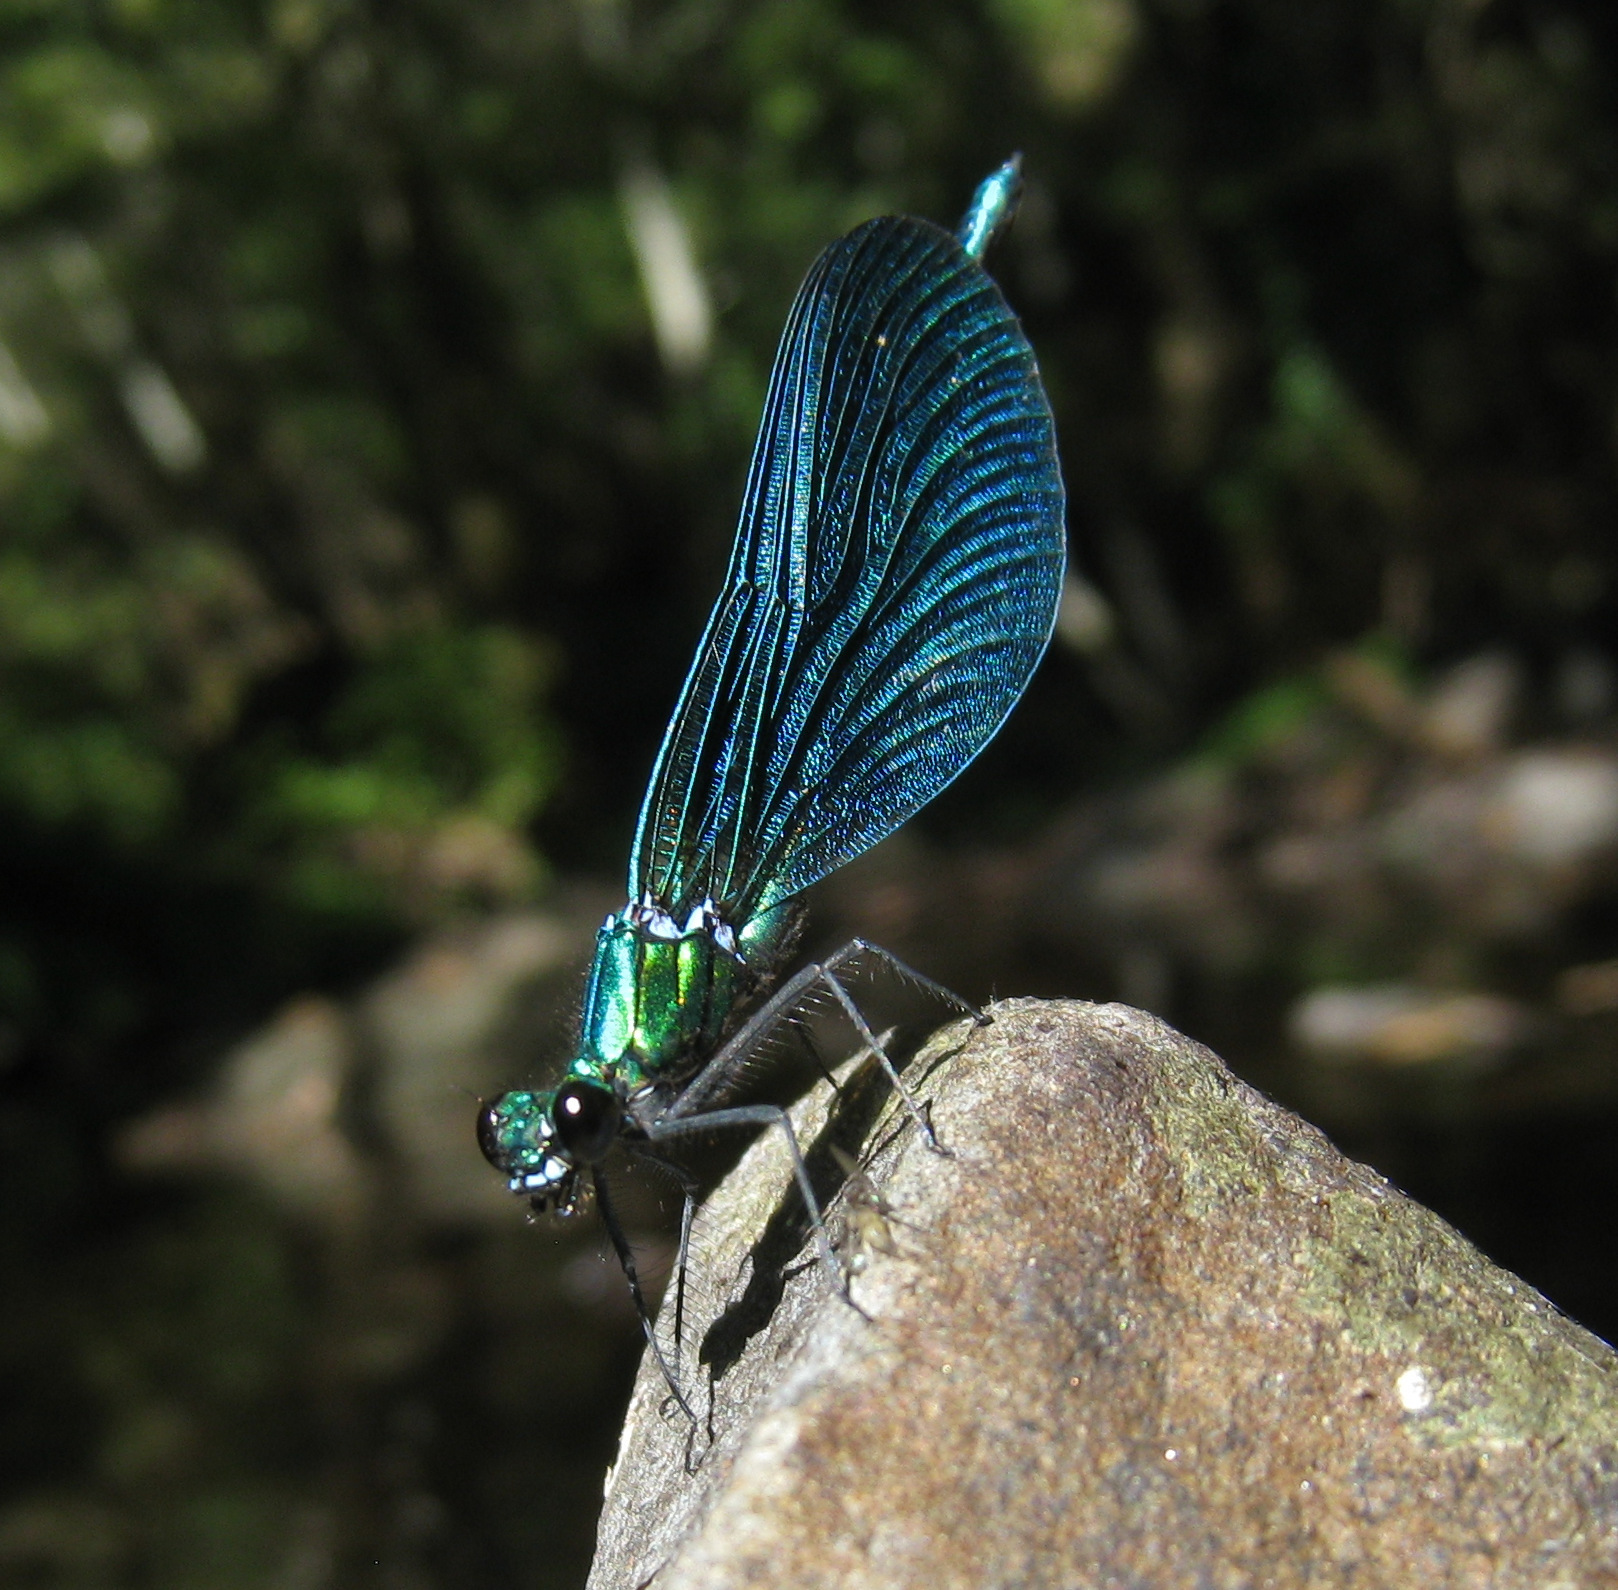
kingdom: Animalia
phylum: Arthropoda
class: Insecta
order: Odonata
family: Calopterygidae
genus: Calopteryx
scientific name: Calopteryx virgo
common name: Beautiful demoiselle
